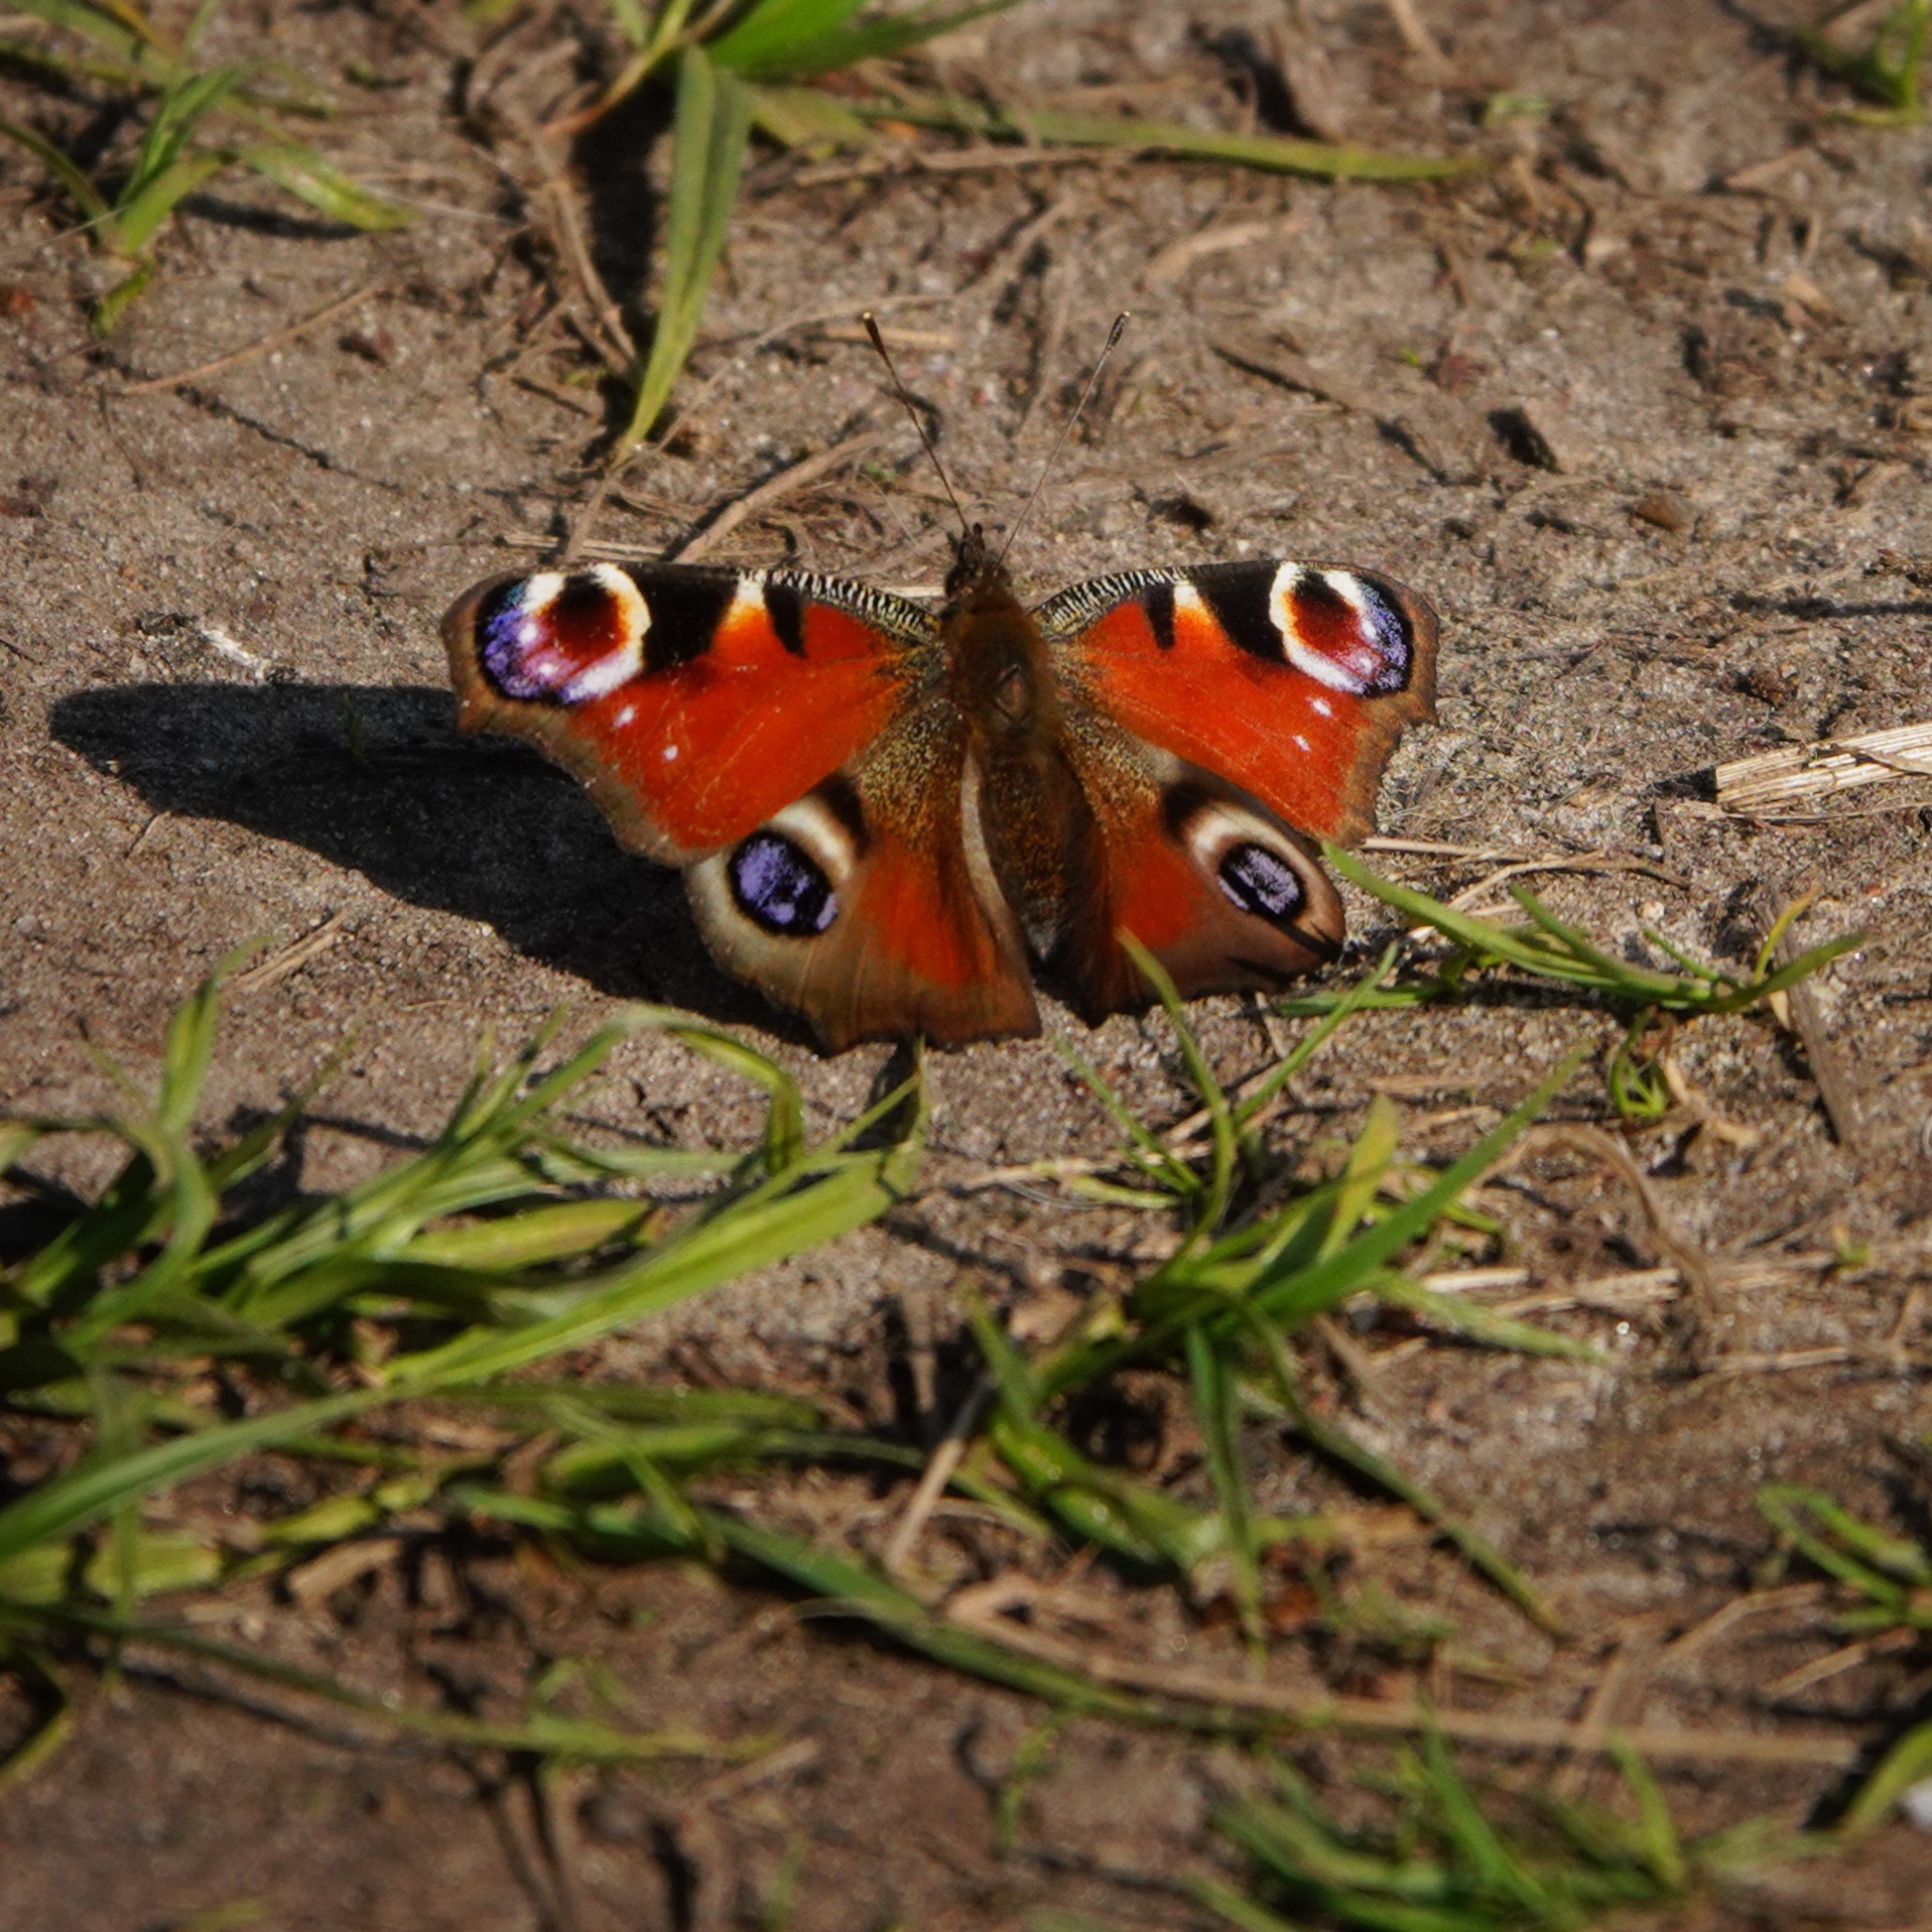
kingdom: Animalia
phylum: Arthropoda
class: Insecta
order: Lepidoptera
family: Nymphalidae
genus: Aglais
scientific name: Aglais io
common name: Peacock
